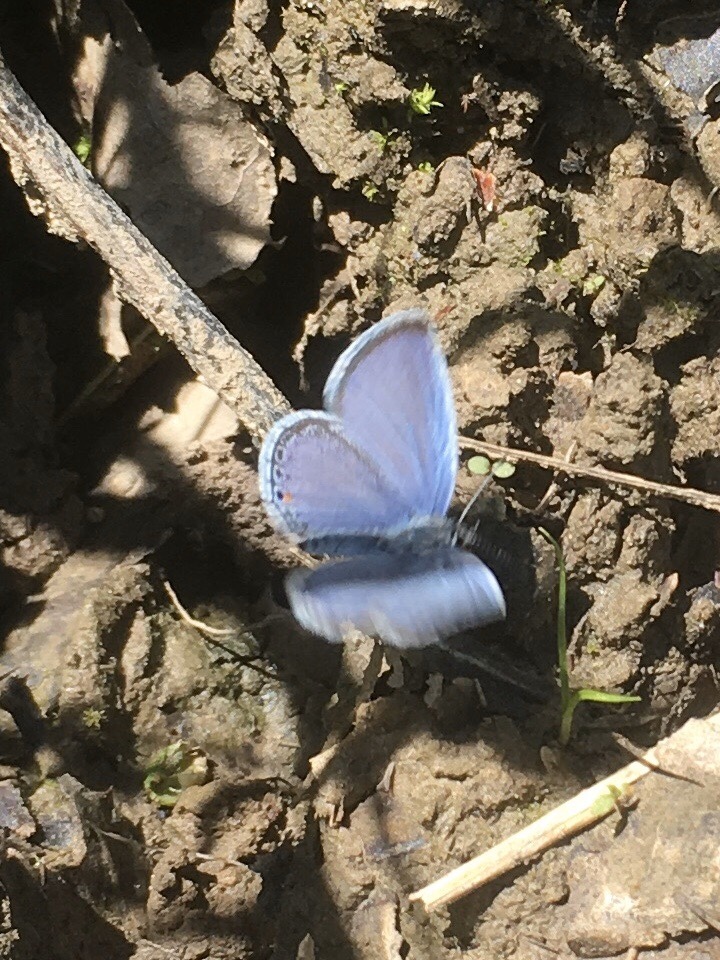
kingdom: Animalia
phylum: Arthropoda
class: Insecta
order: Lepidoptera
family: Lycaenidae
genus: Elkalyce
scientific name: Elkalyce comyntas
